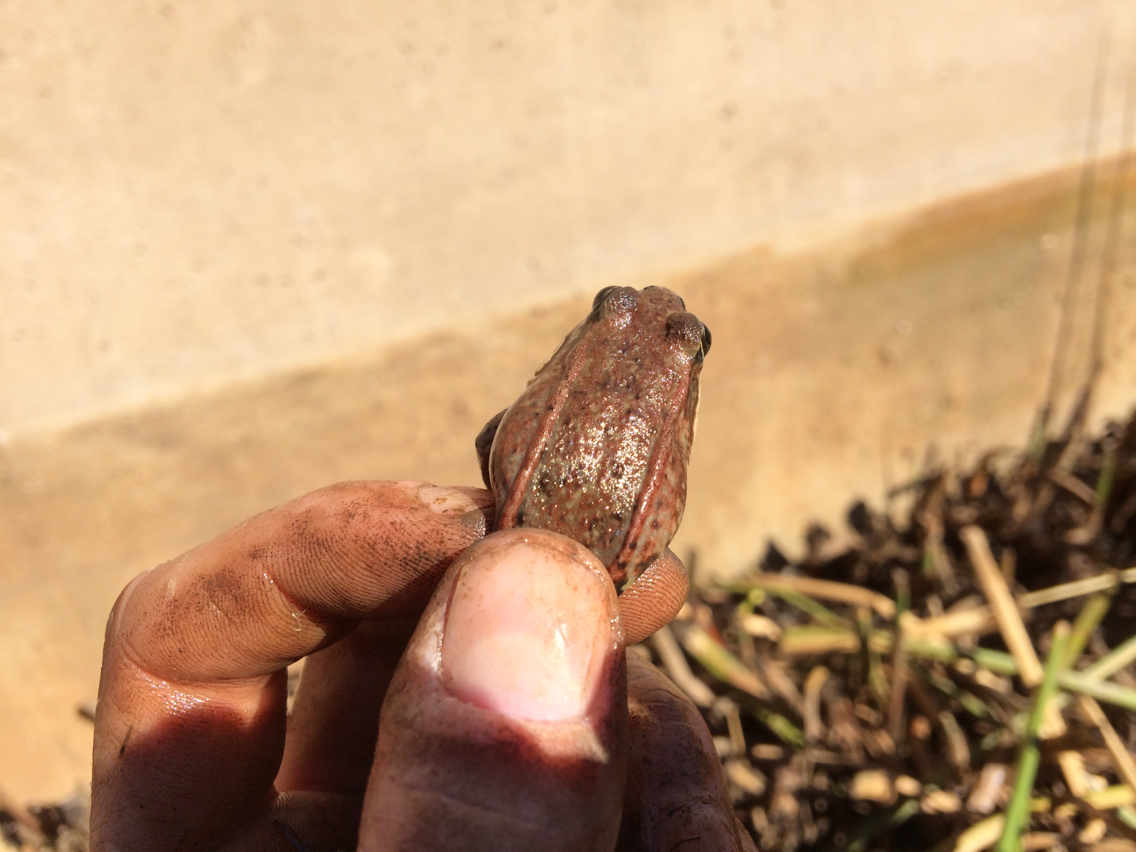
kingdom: Animalia
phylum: Chordata
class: Amphibia
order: Anura
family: Ranidae
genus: Rana
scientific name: Rana draytonii
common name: California red-legged frog
